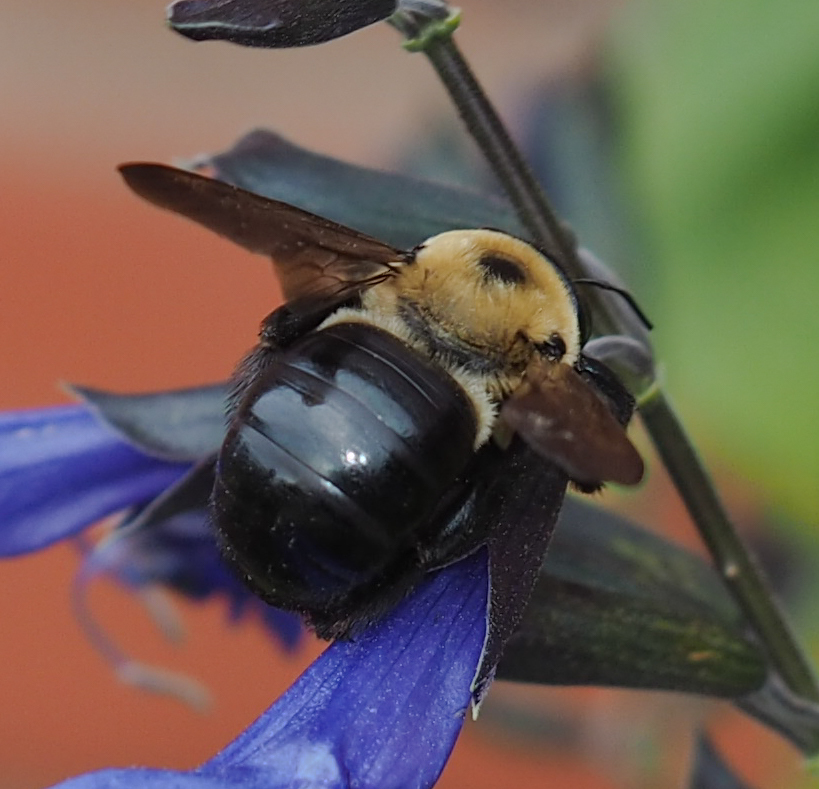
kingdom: Animalia
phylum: Arthropoda
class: Insecta
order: Hymenoptera
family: Apidae
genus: Xylocopa
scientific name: Xylocopa virginica
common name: Carpenter bee
